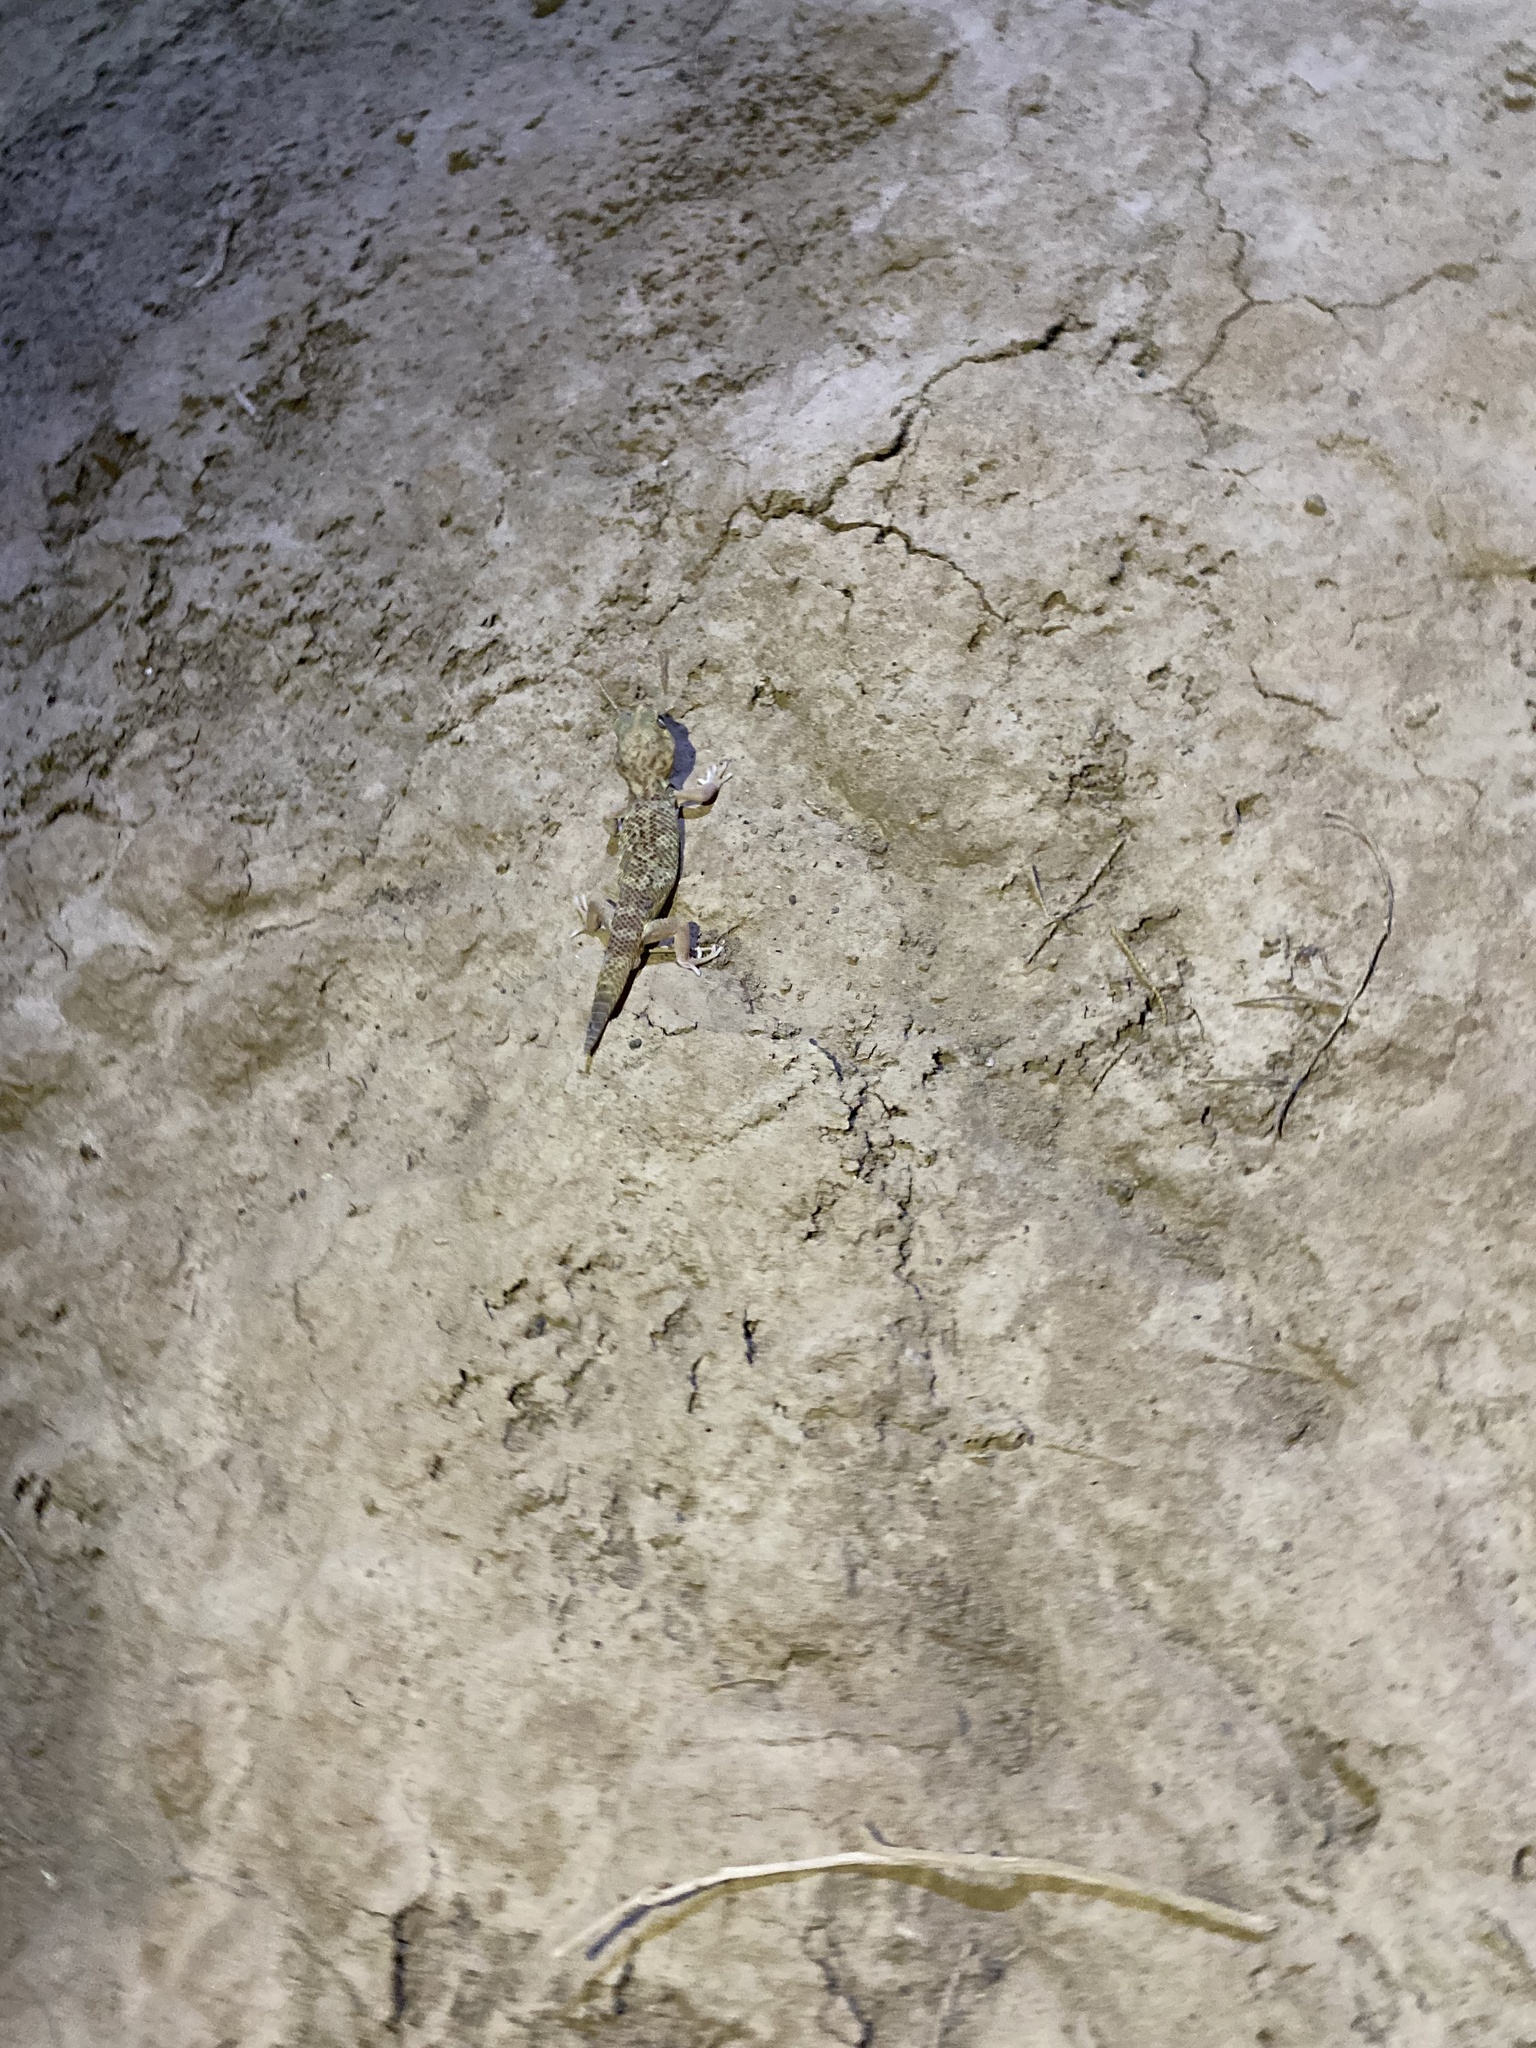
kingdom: Animalia
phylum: Chordata
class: Squamata
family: Sphaerodactylidae
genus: Teratoscincus
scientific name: Teratoscincus bedriagai
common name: Bedriaga's plate-tailed gecko
